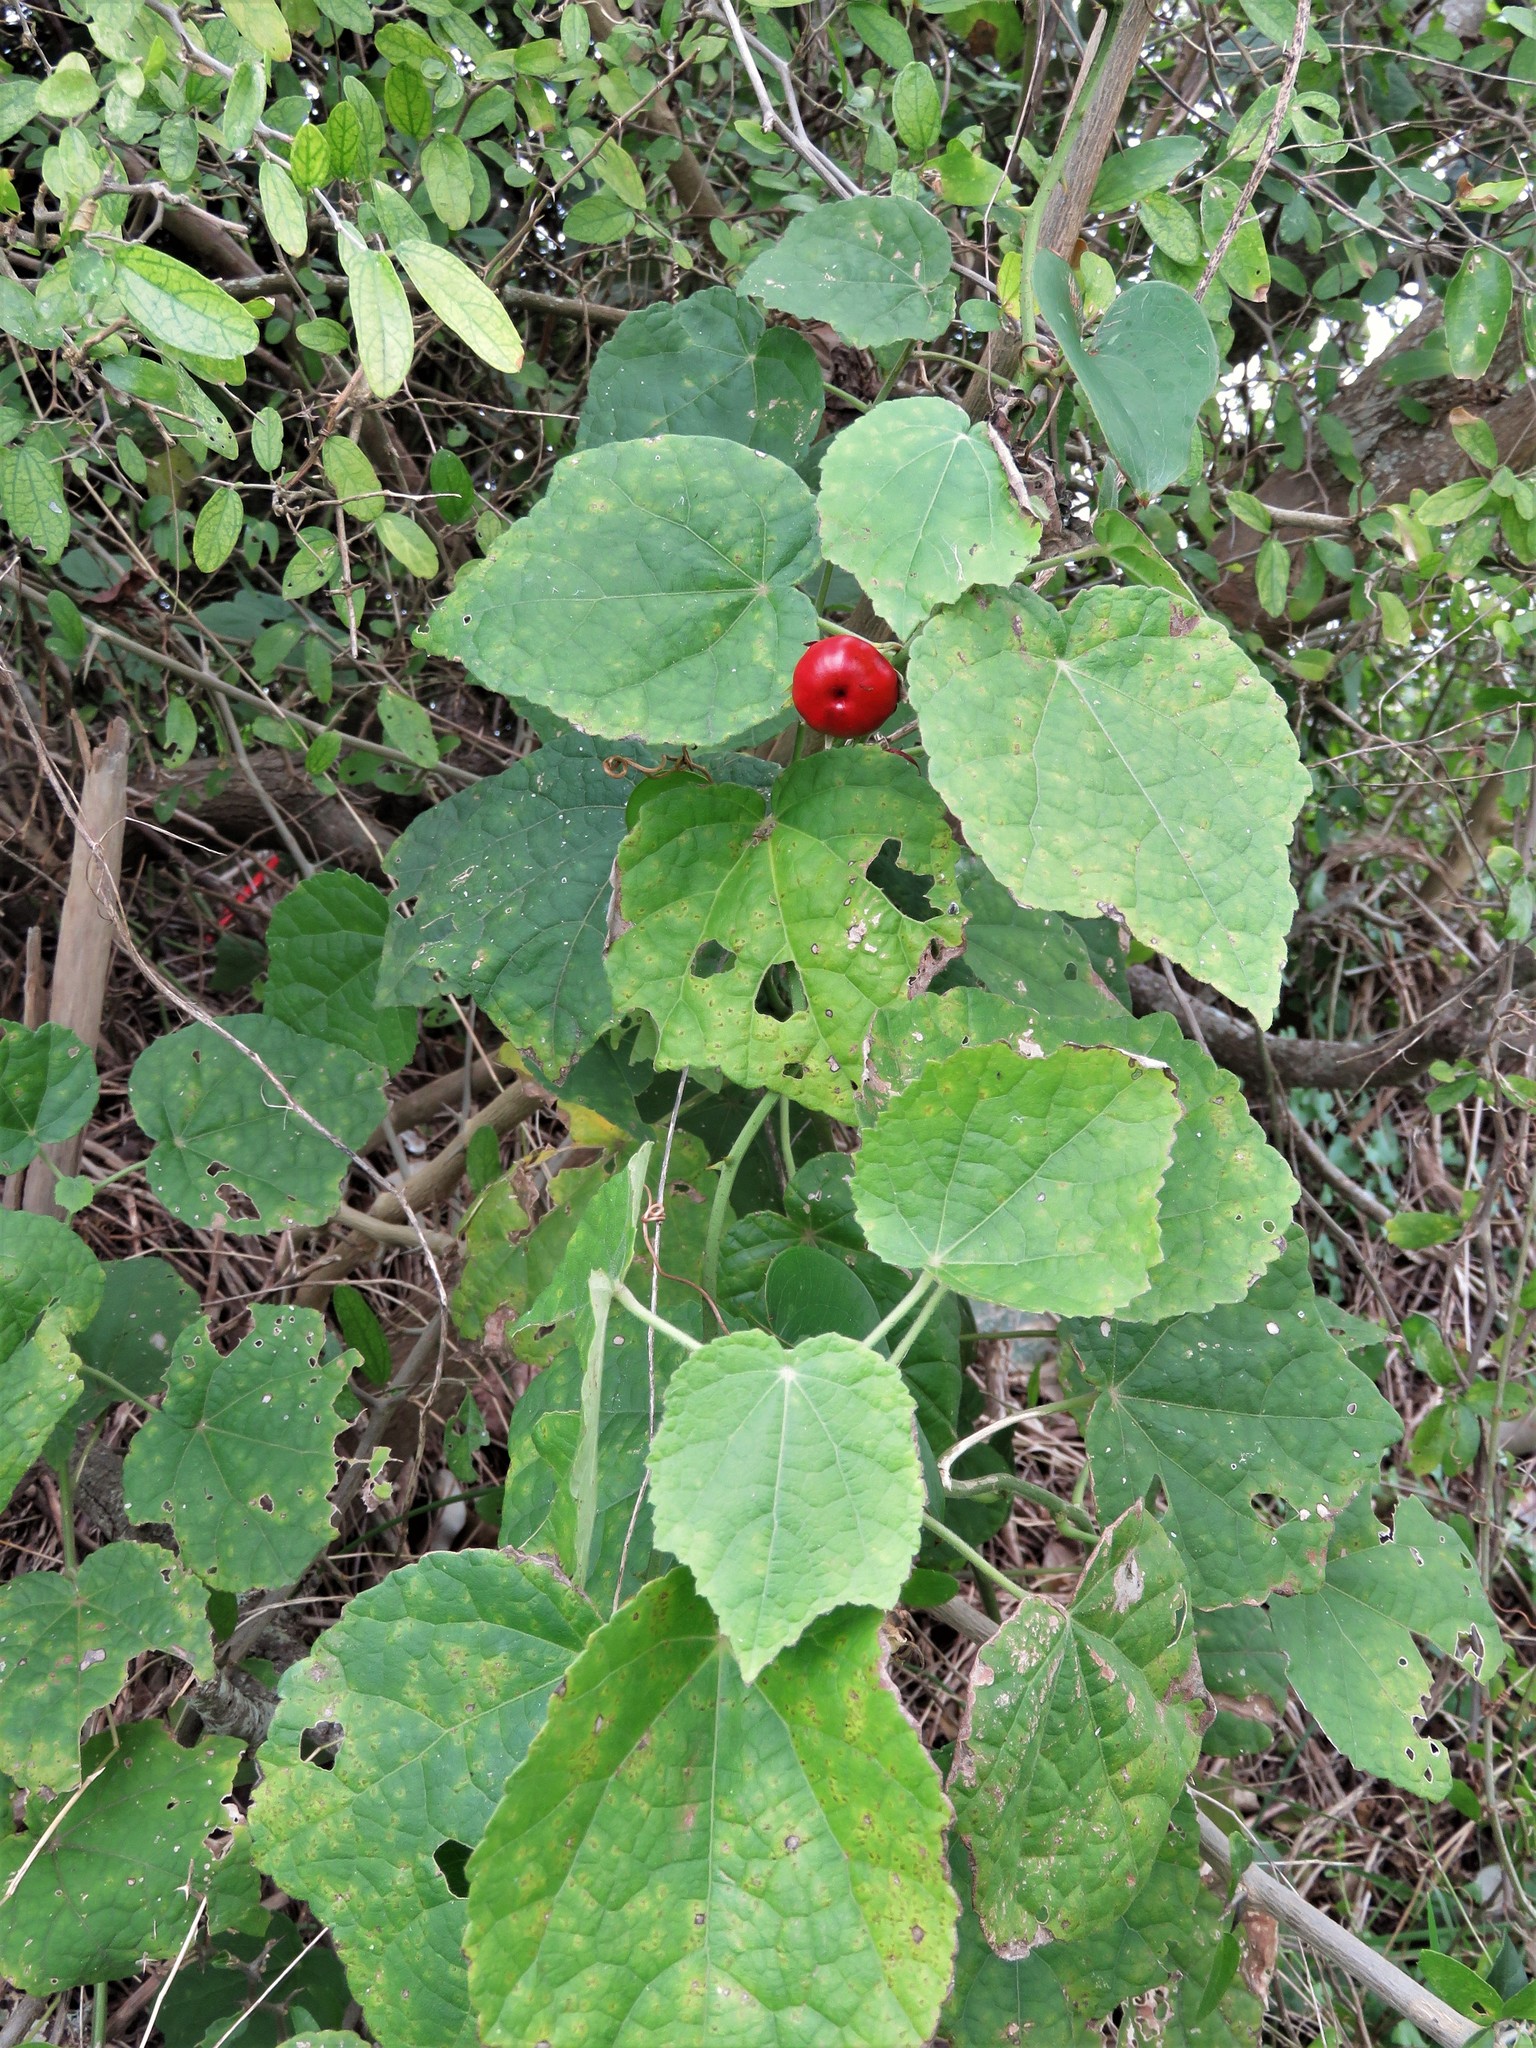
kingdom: Plantae
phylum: Tracheophyta
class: Magnoliopsida
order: Malvales
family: Malvaceae
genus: Malvaviscus
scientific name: Malvaviscus arboreus
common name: Wax mallow
